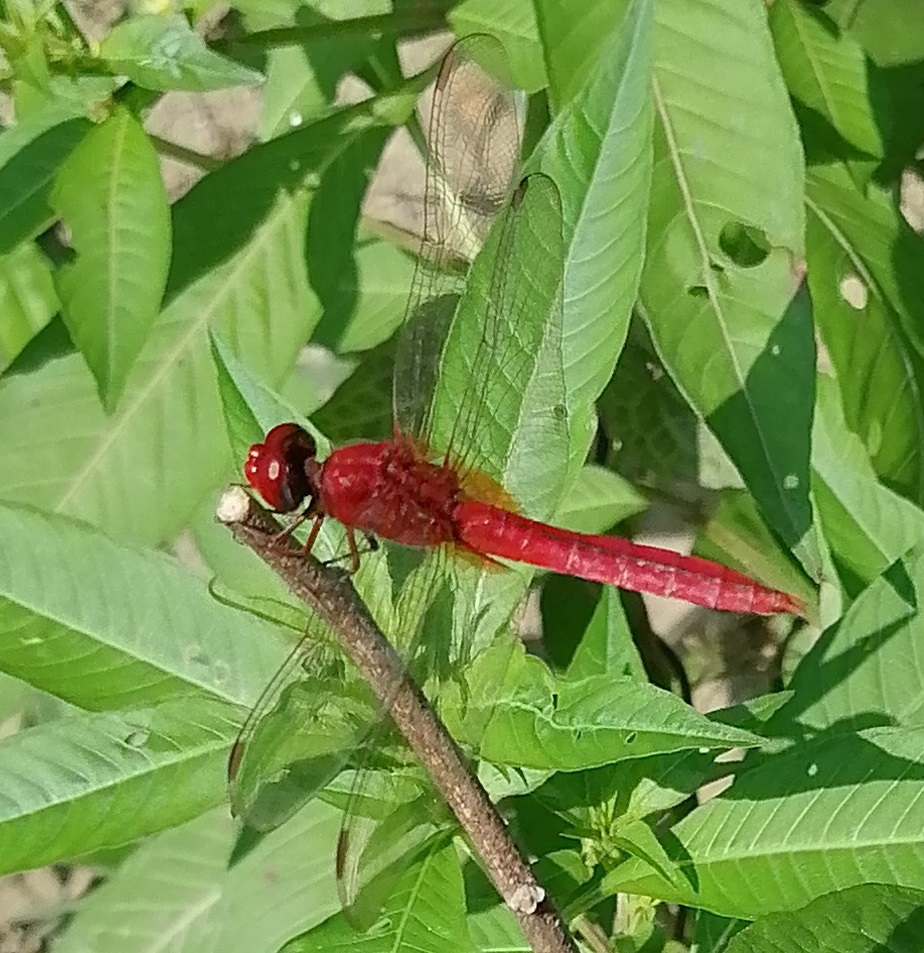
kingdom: Animalia
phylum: Arthropoda
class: Insecta
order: Odonata
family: Libellulidae
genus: Crocothemis
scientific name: Crocothemis servilia
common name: Scarlet skimmer
